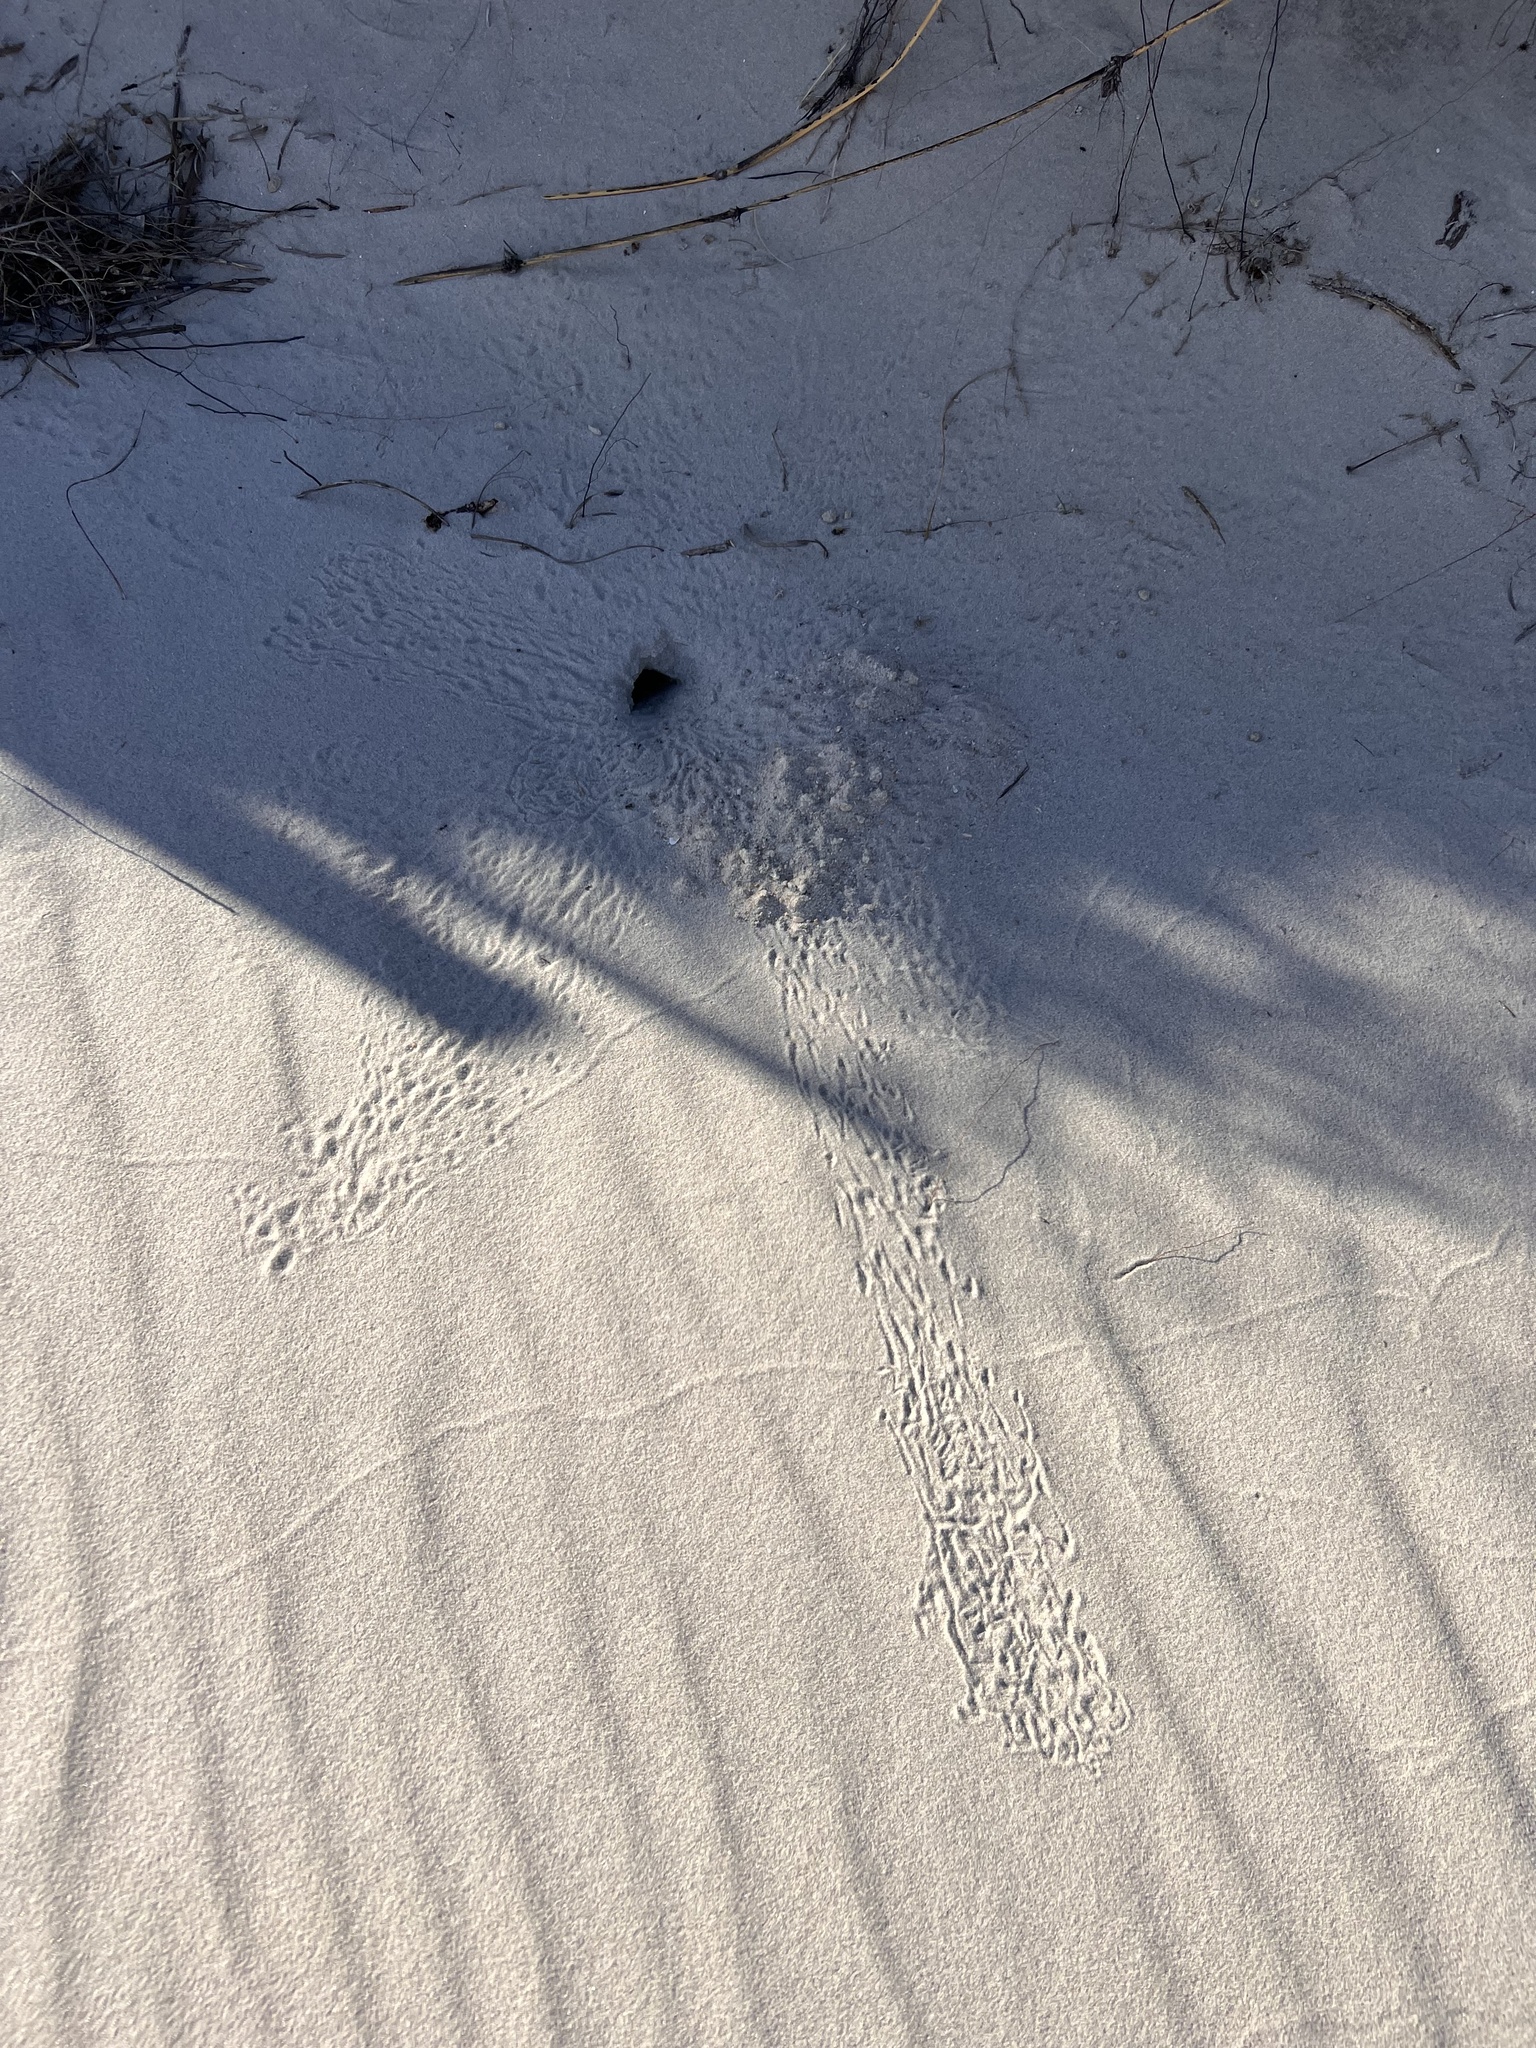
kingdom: Animalia
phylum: Arthropoda
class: Malacostraca
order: Decapoda
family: Ocypodidae
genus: Ocypode
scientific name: Ocypode quadrata
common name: Ghost crab
